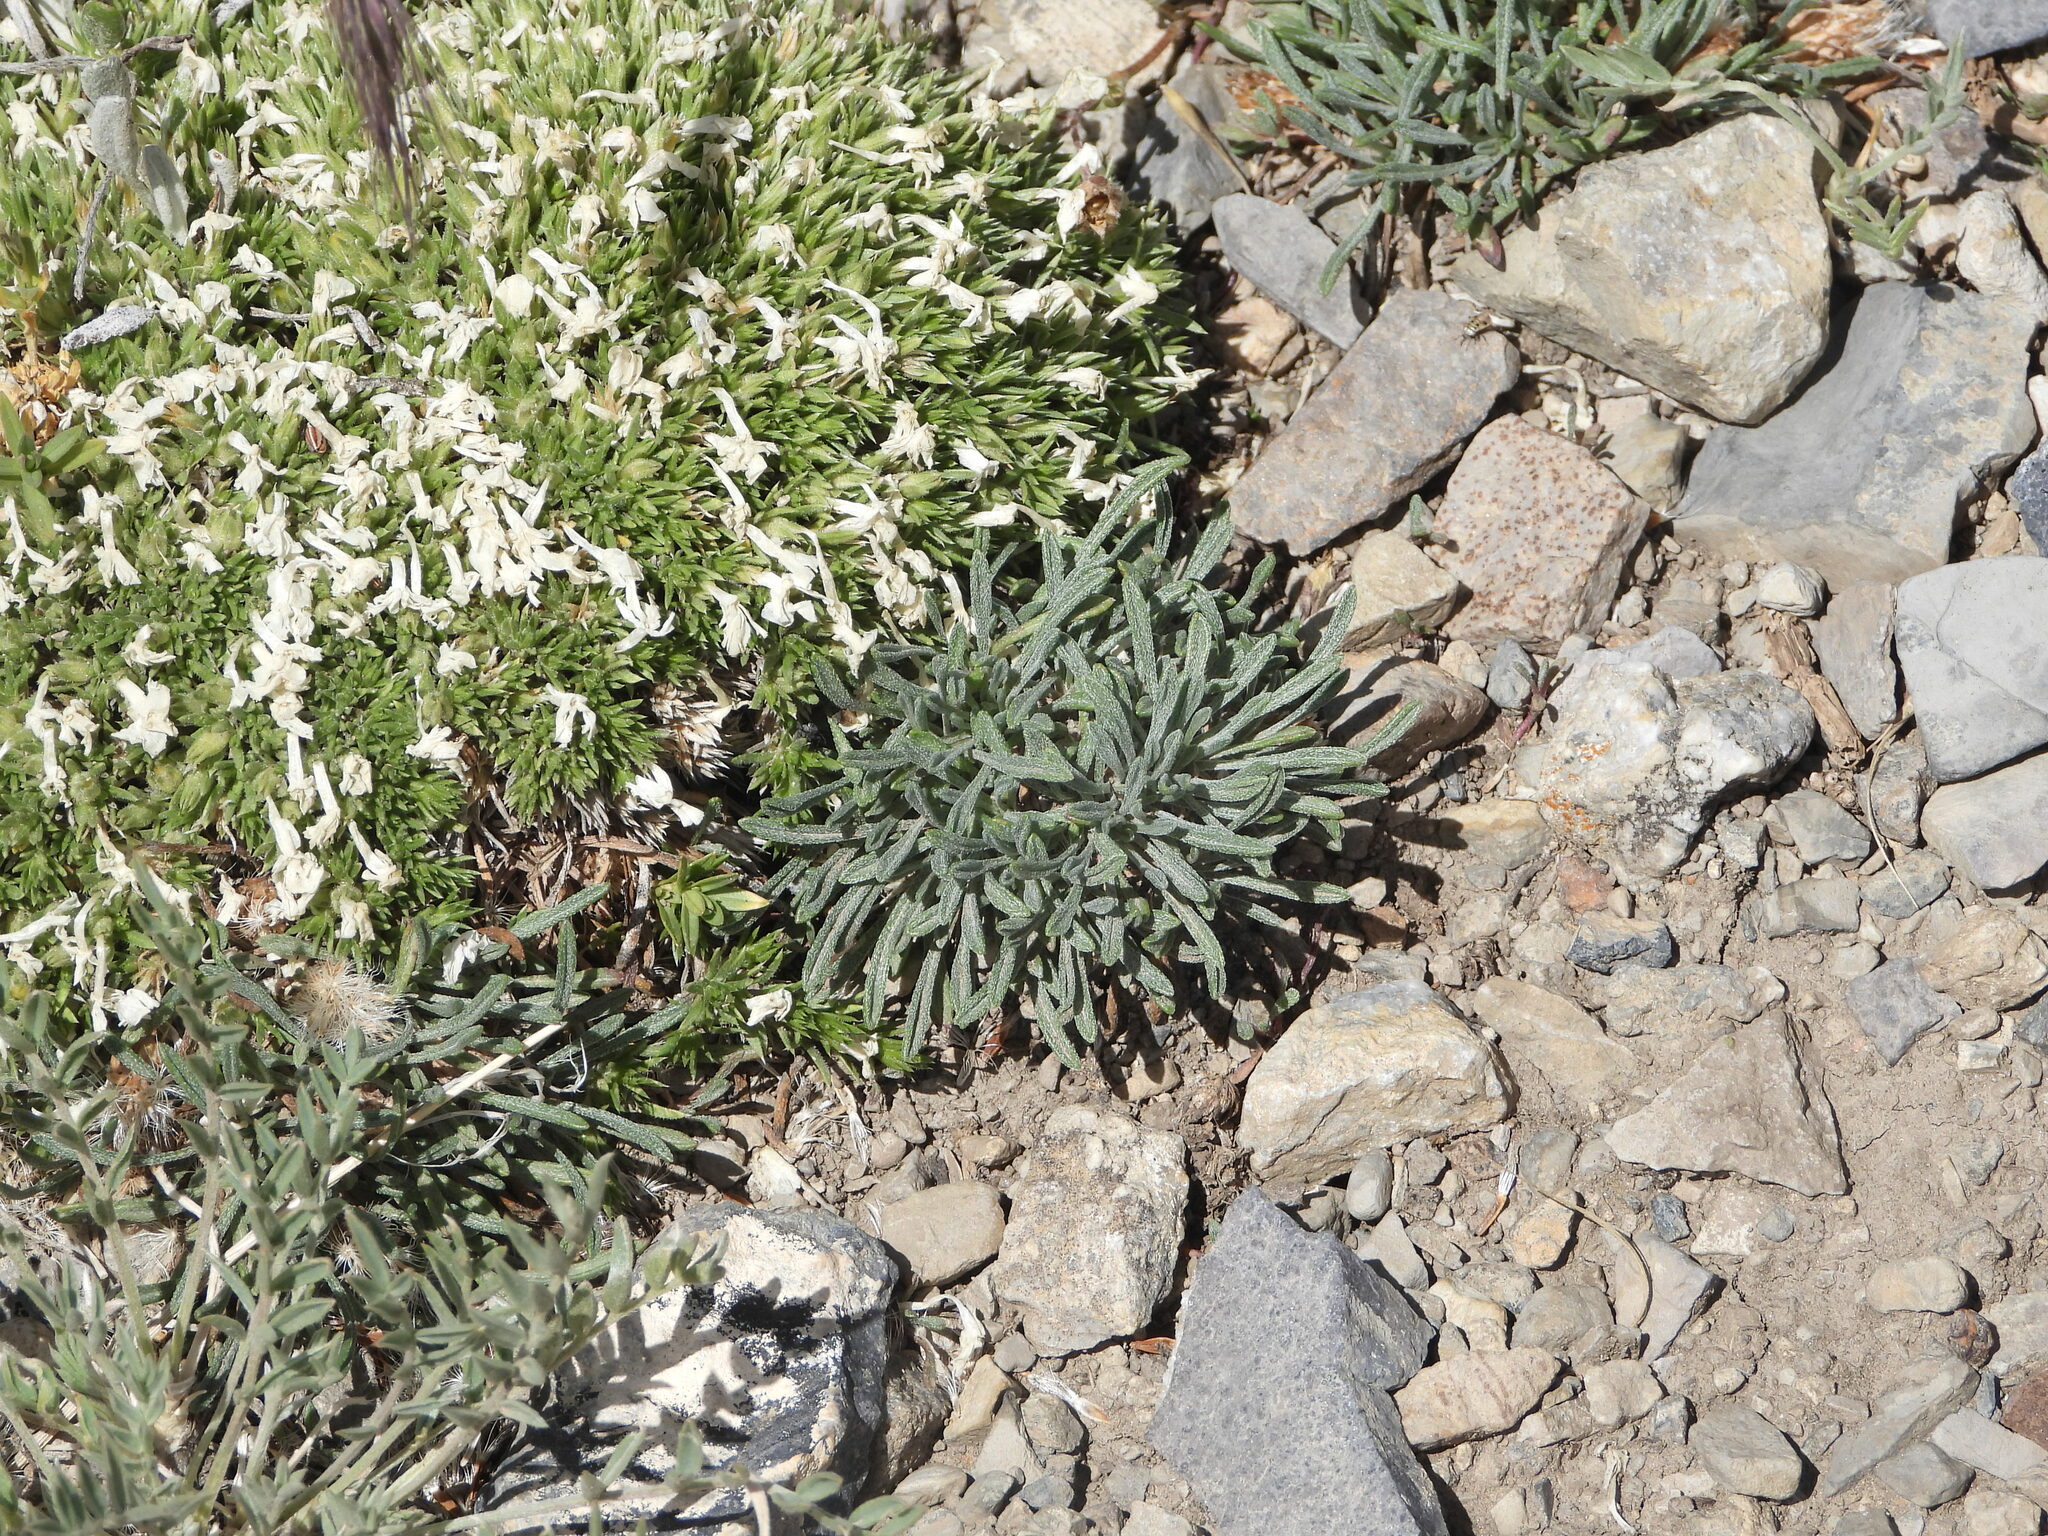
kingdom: Plantae
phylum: Tracheophyta
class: Magnoliopsida
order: Caryophyllales
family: Caryophyllaceae
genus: Silene
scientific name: Silene acaulis
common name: Moss campion
